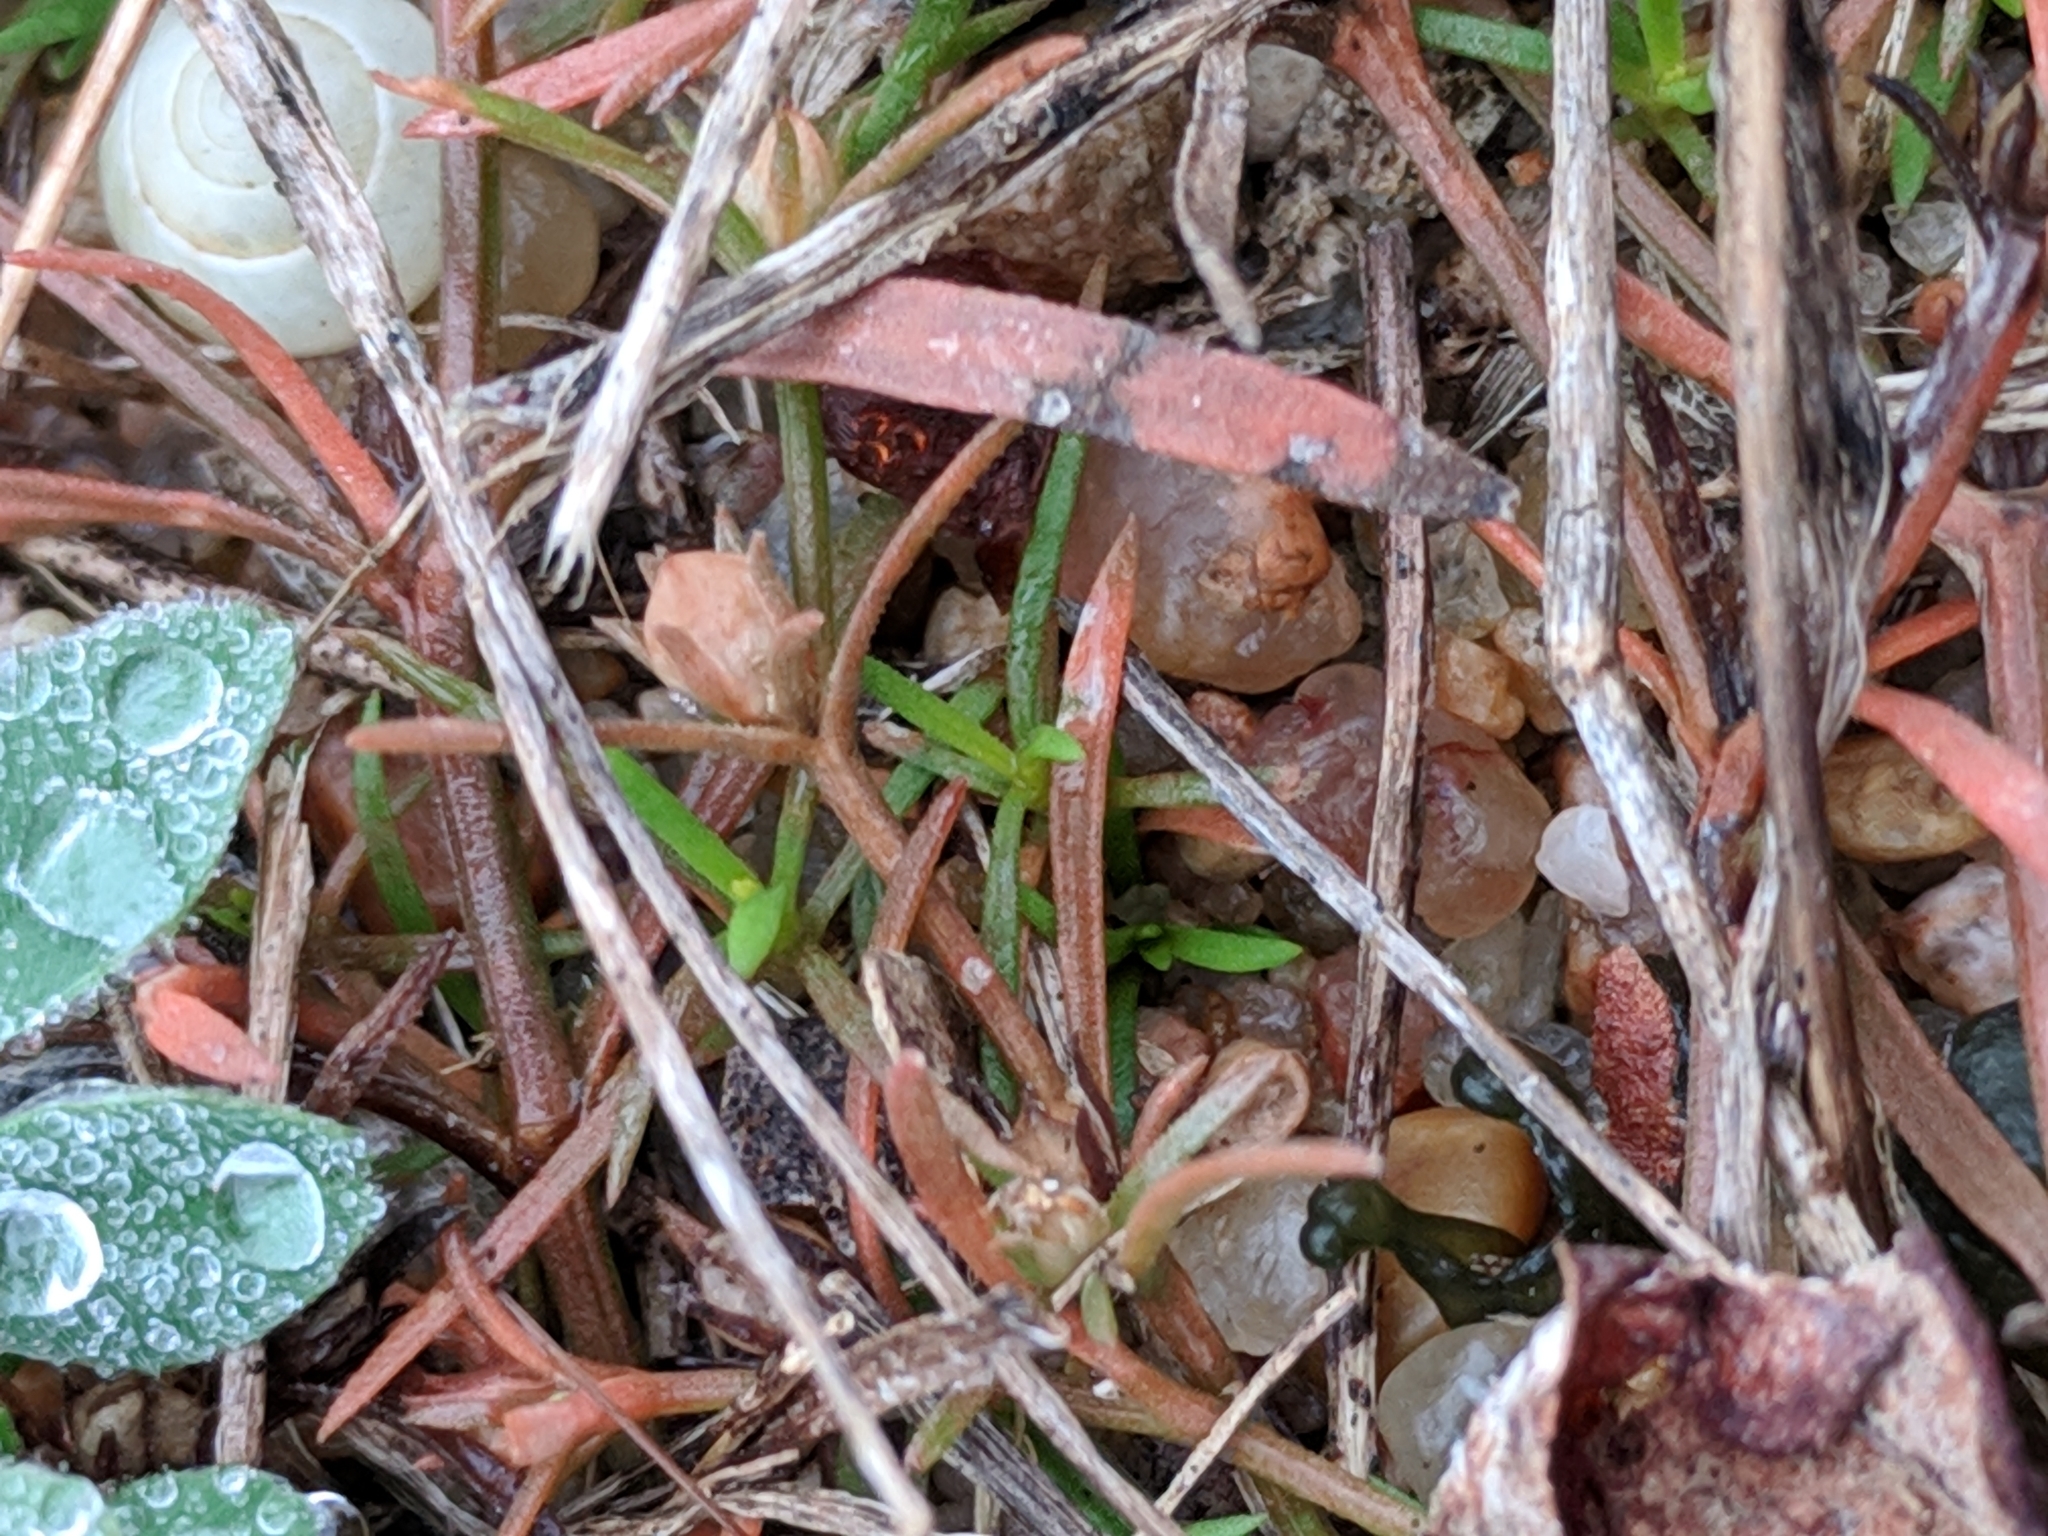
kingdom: Plantae
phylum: Tracheophyta
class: Magnoliopsida
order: Lamiales
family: Tetrachondraceae
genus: Polypremum
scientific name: Polypremum procumbens
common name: Juniper-leaf
